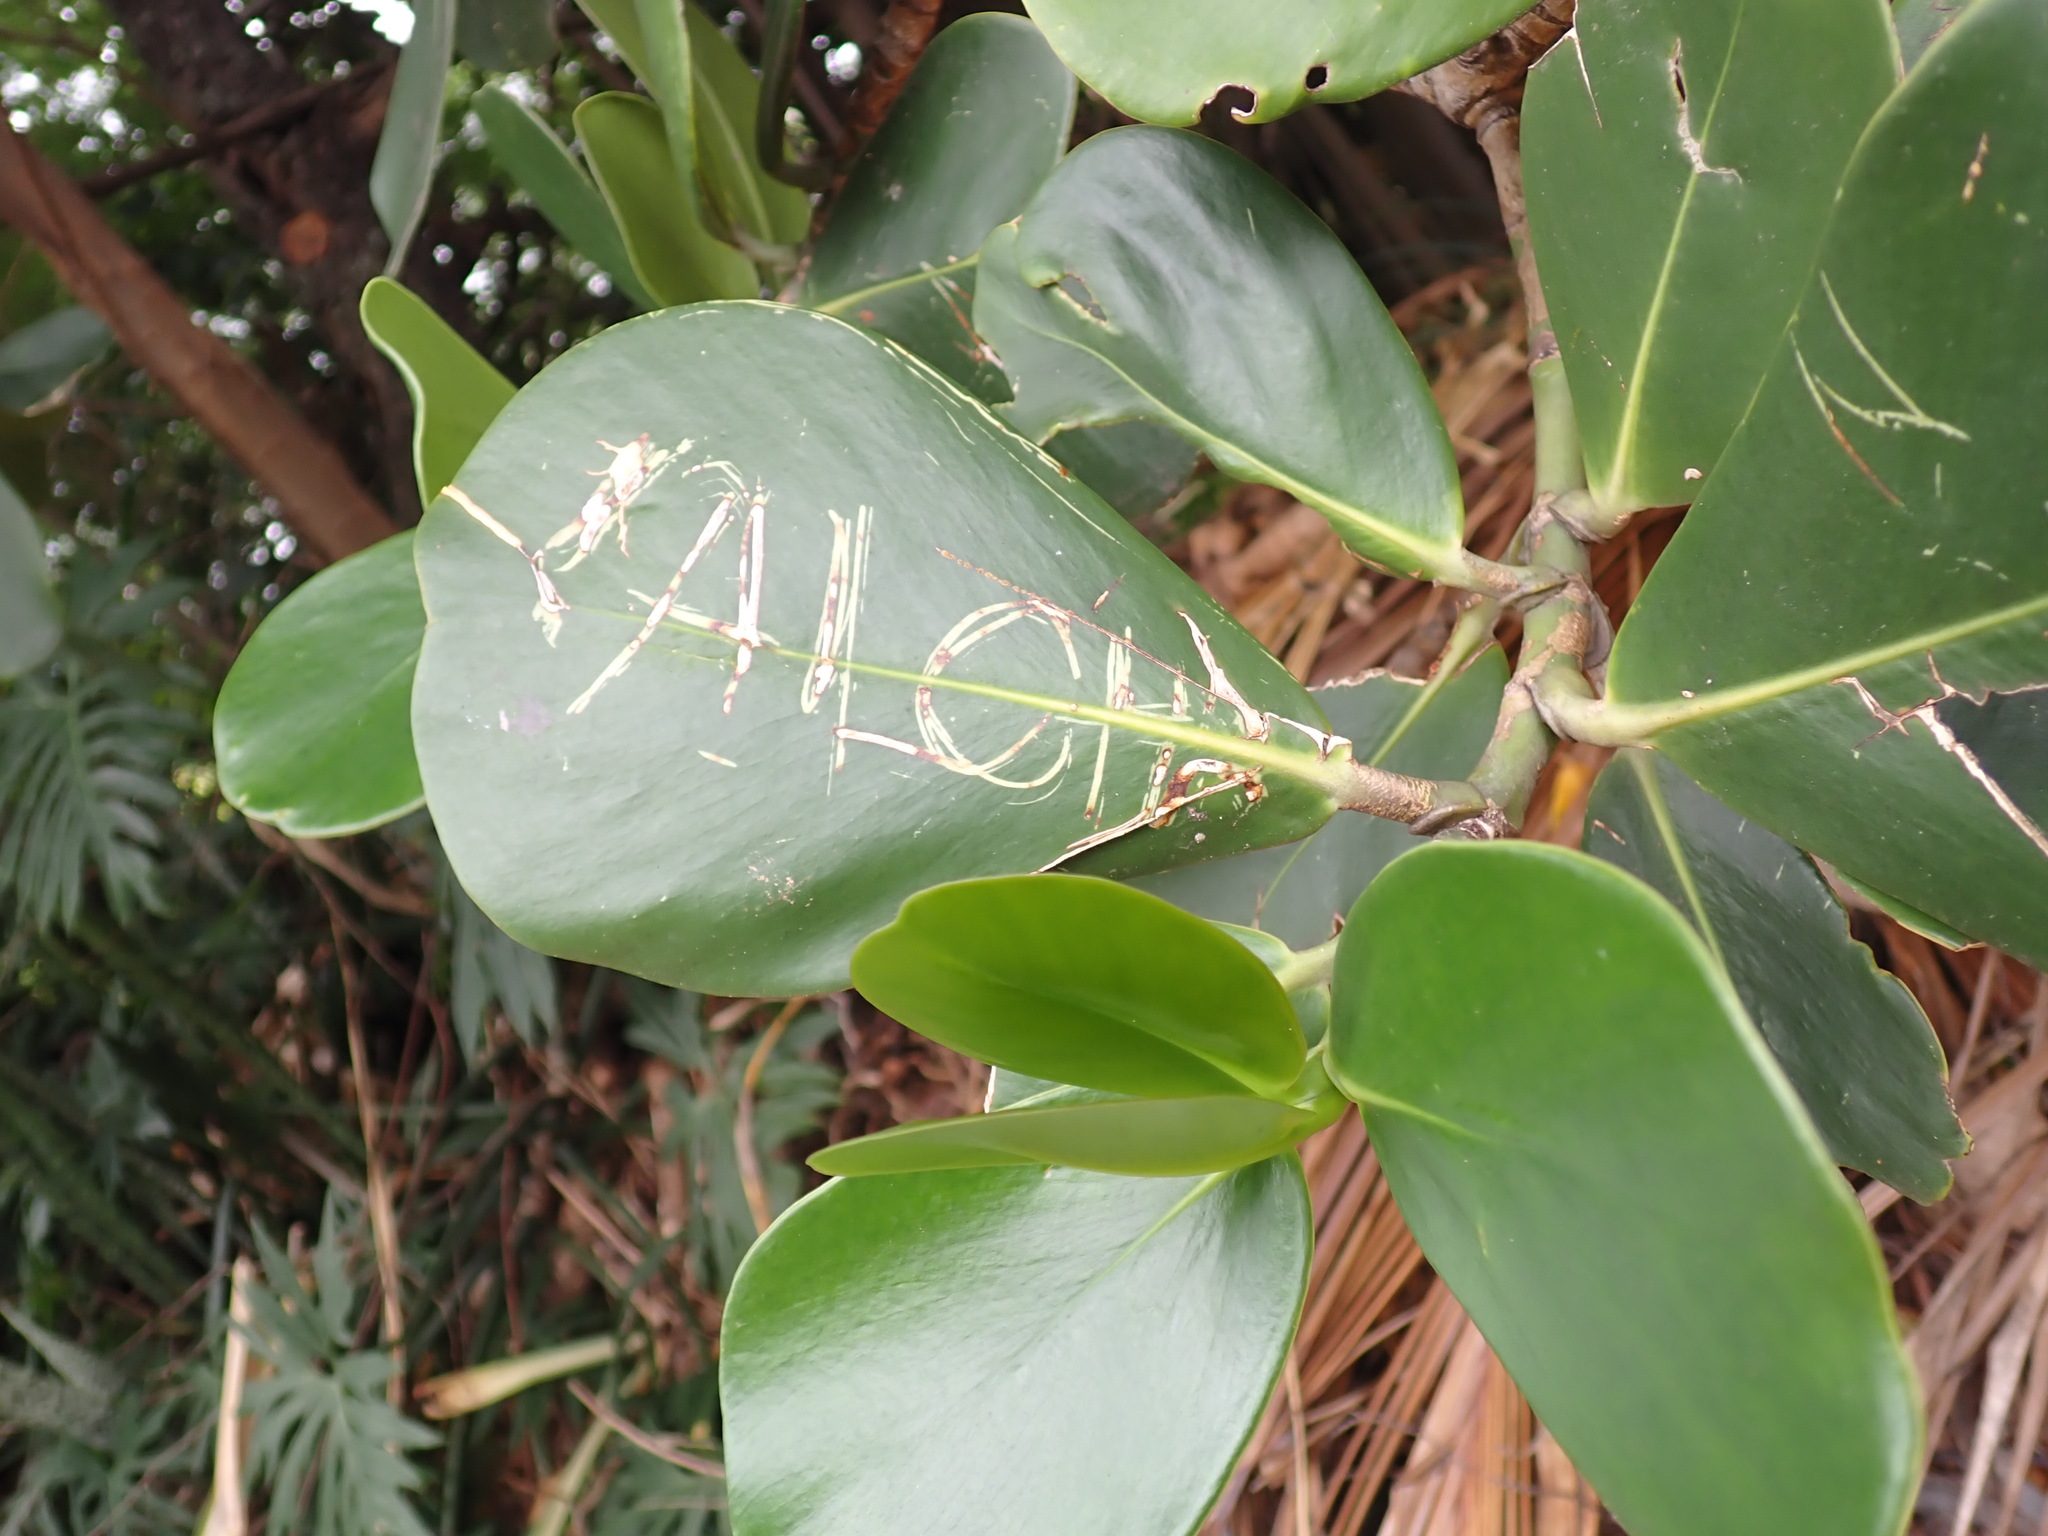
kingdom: Plantae
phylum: Tracheophyta
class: Magnoliopsida
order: Malpighiales
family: Clusiaceae
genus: Clusia
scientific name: Clusia rosea
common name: Scotch attorney
